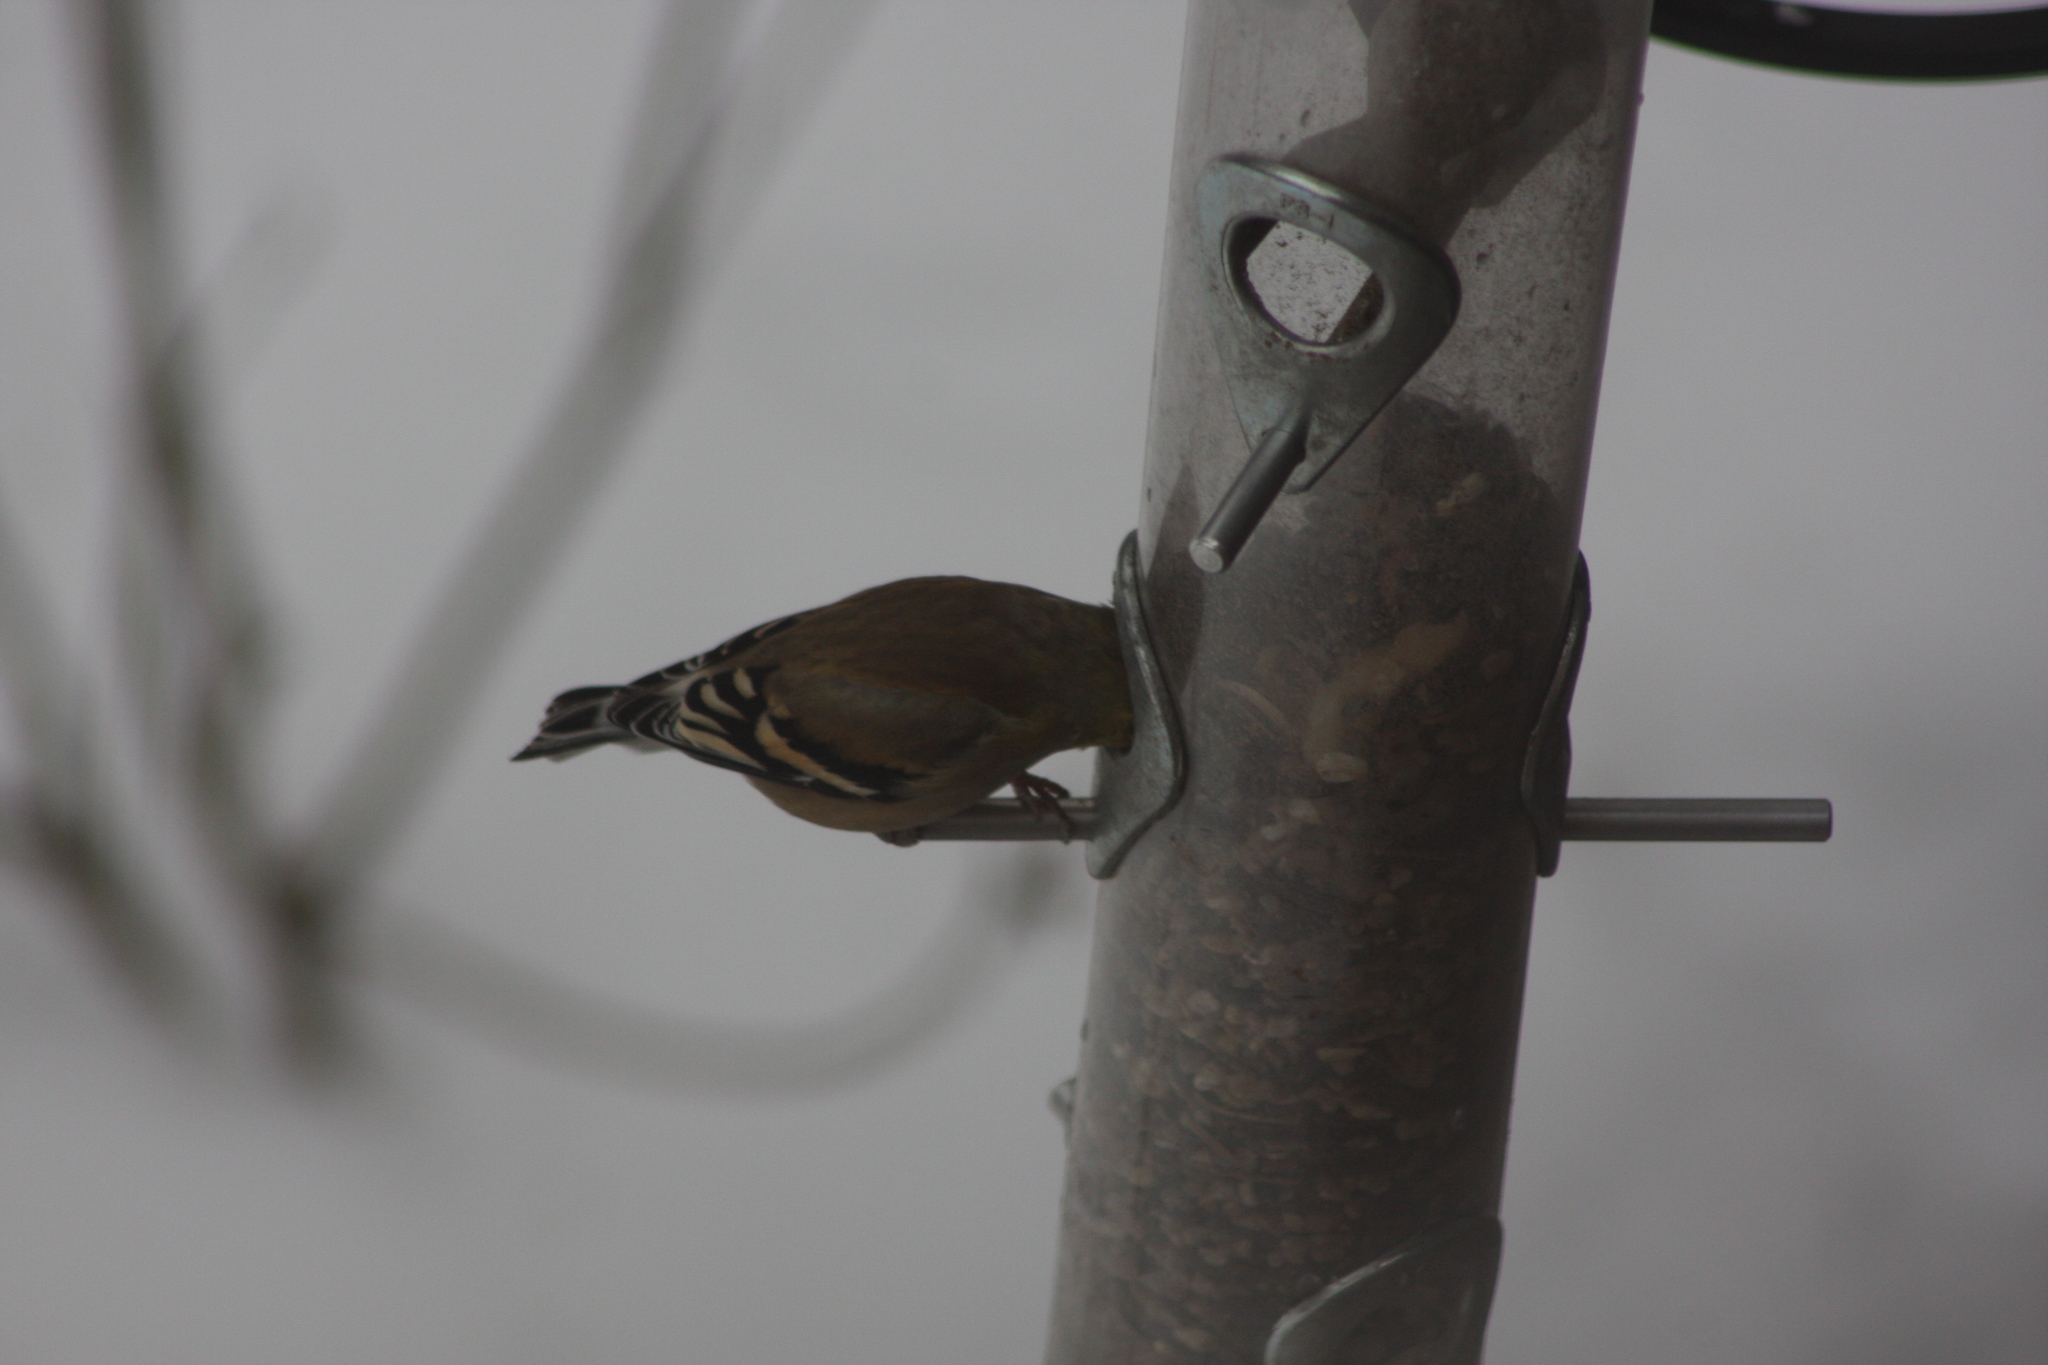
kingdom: Animalia
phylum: Chordata
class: Aves
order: Passeriformes
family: Fringillidae
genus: Spinus
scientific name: Spinus tristis
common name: American goldfinch
